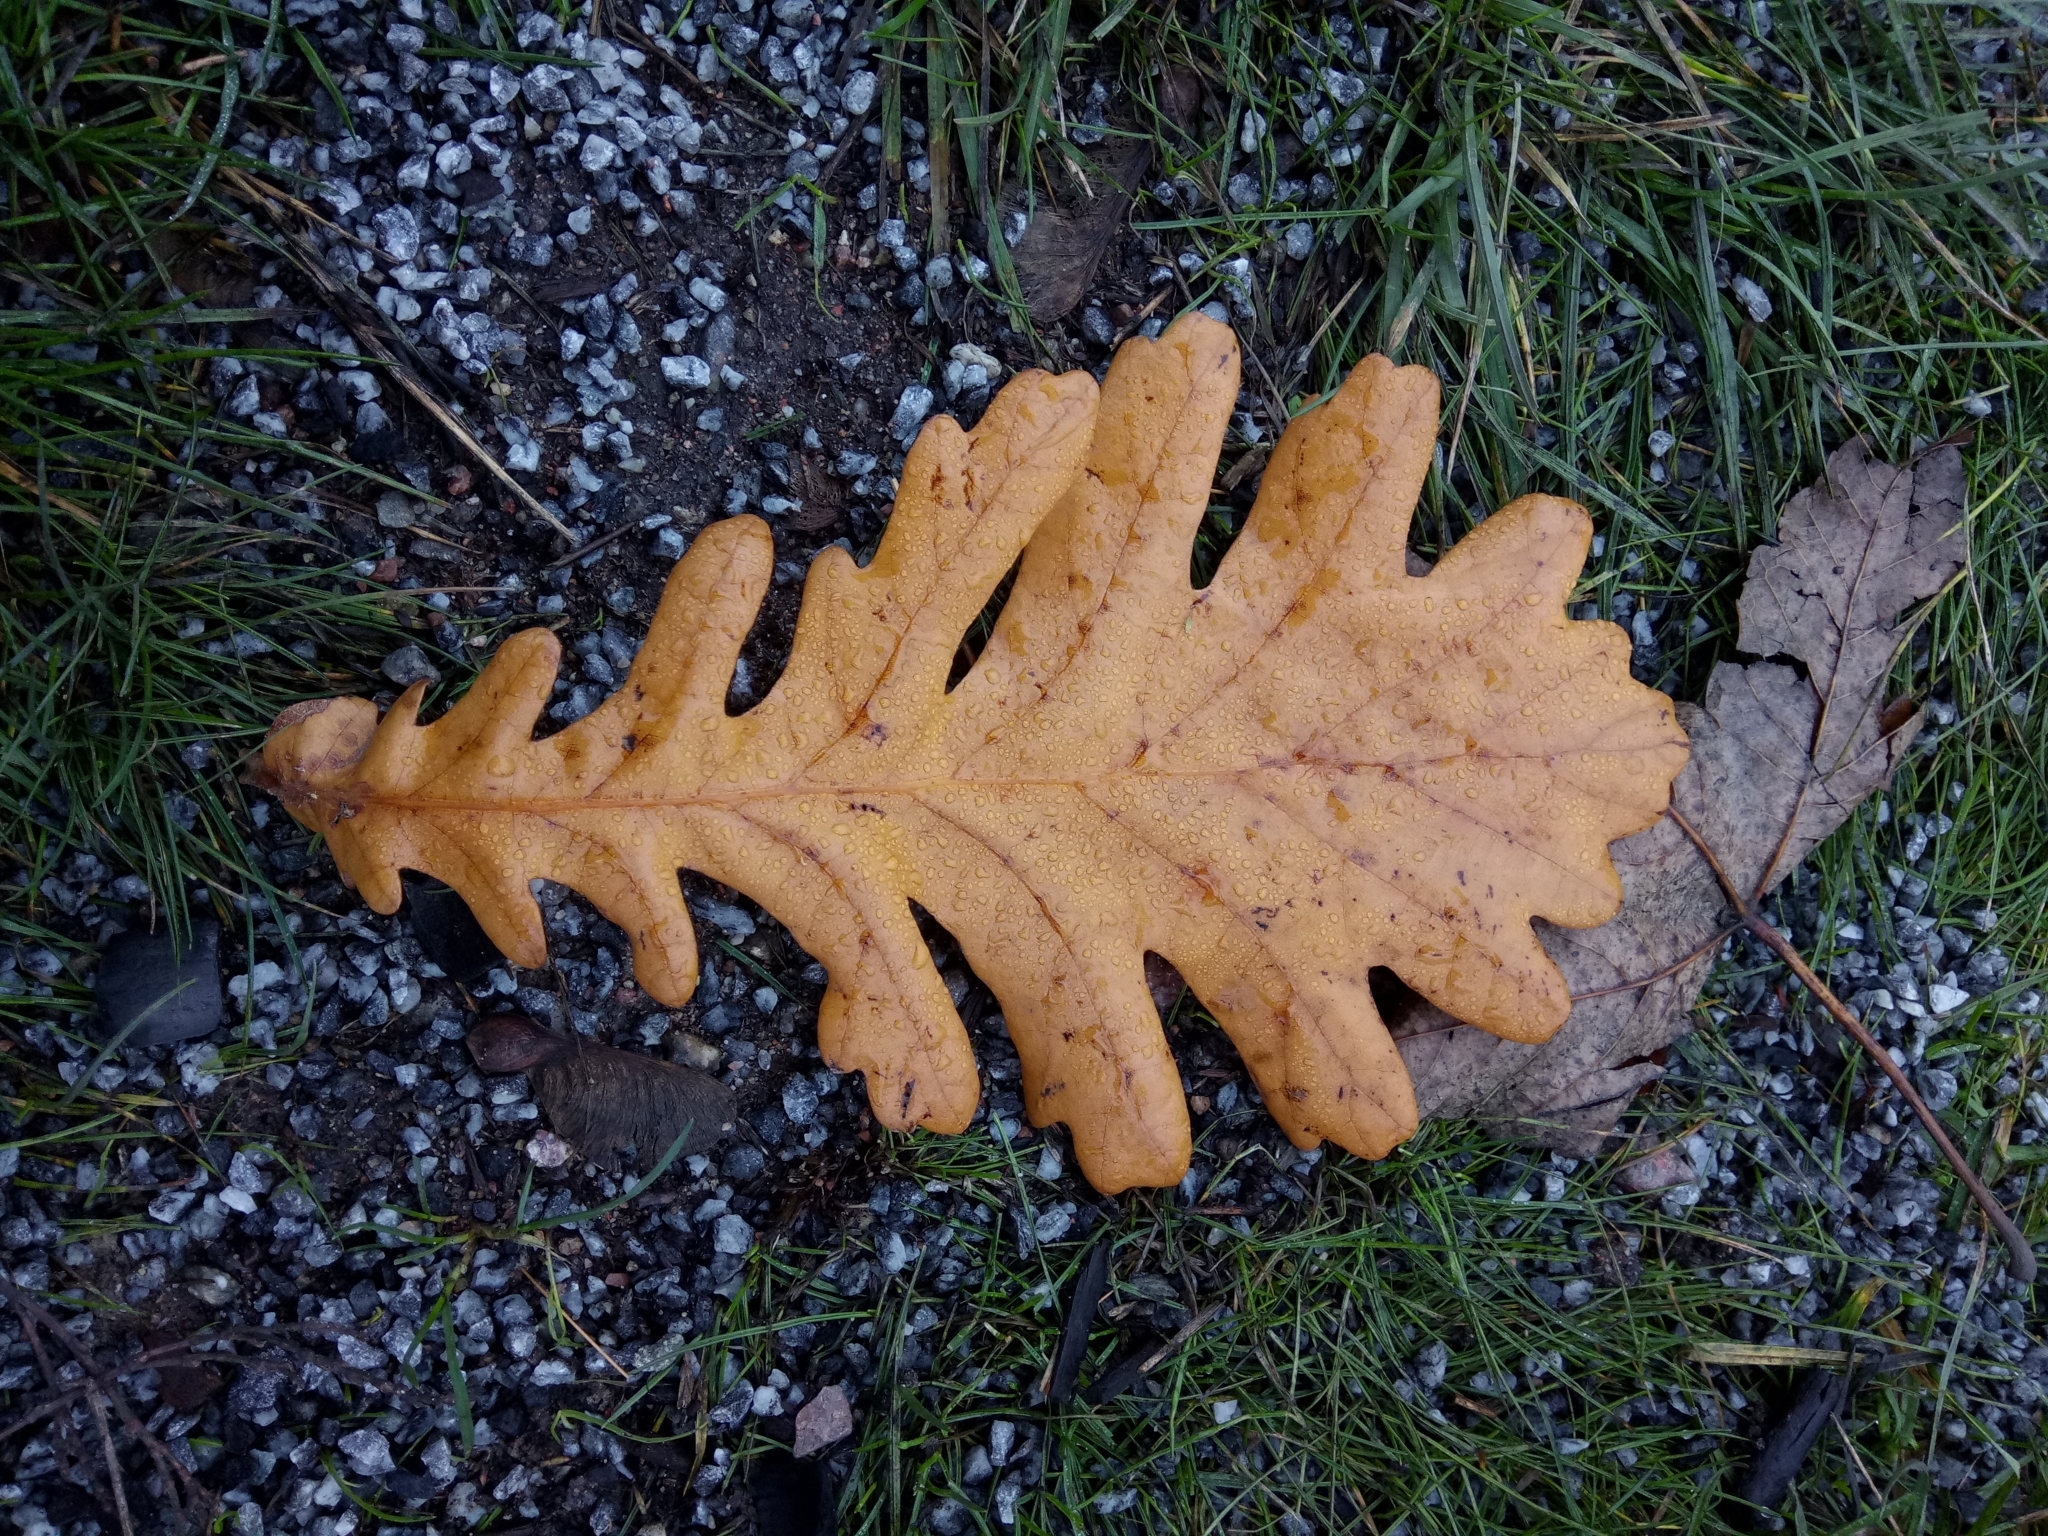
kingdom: Plantae
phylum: Tracheophyta
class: Magnoliopsida
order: Fagales
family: Fagaceae
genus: Quercus
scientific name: Quercus robur
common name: Pedunculate oak
